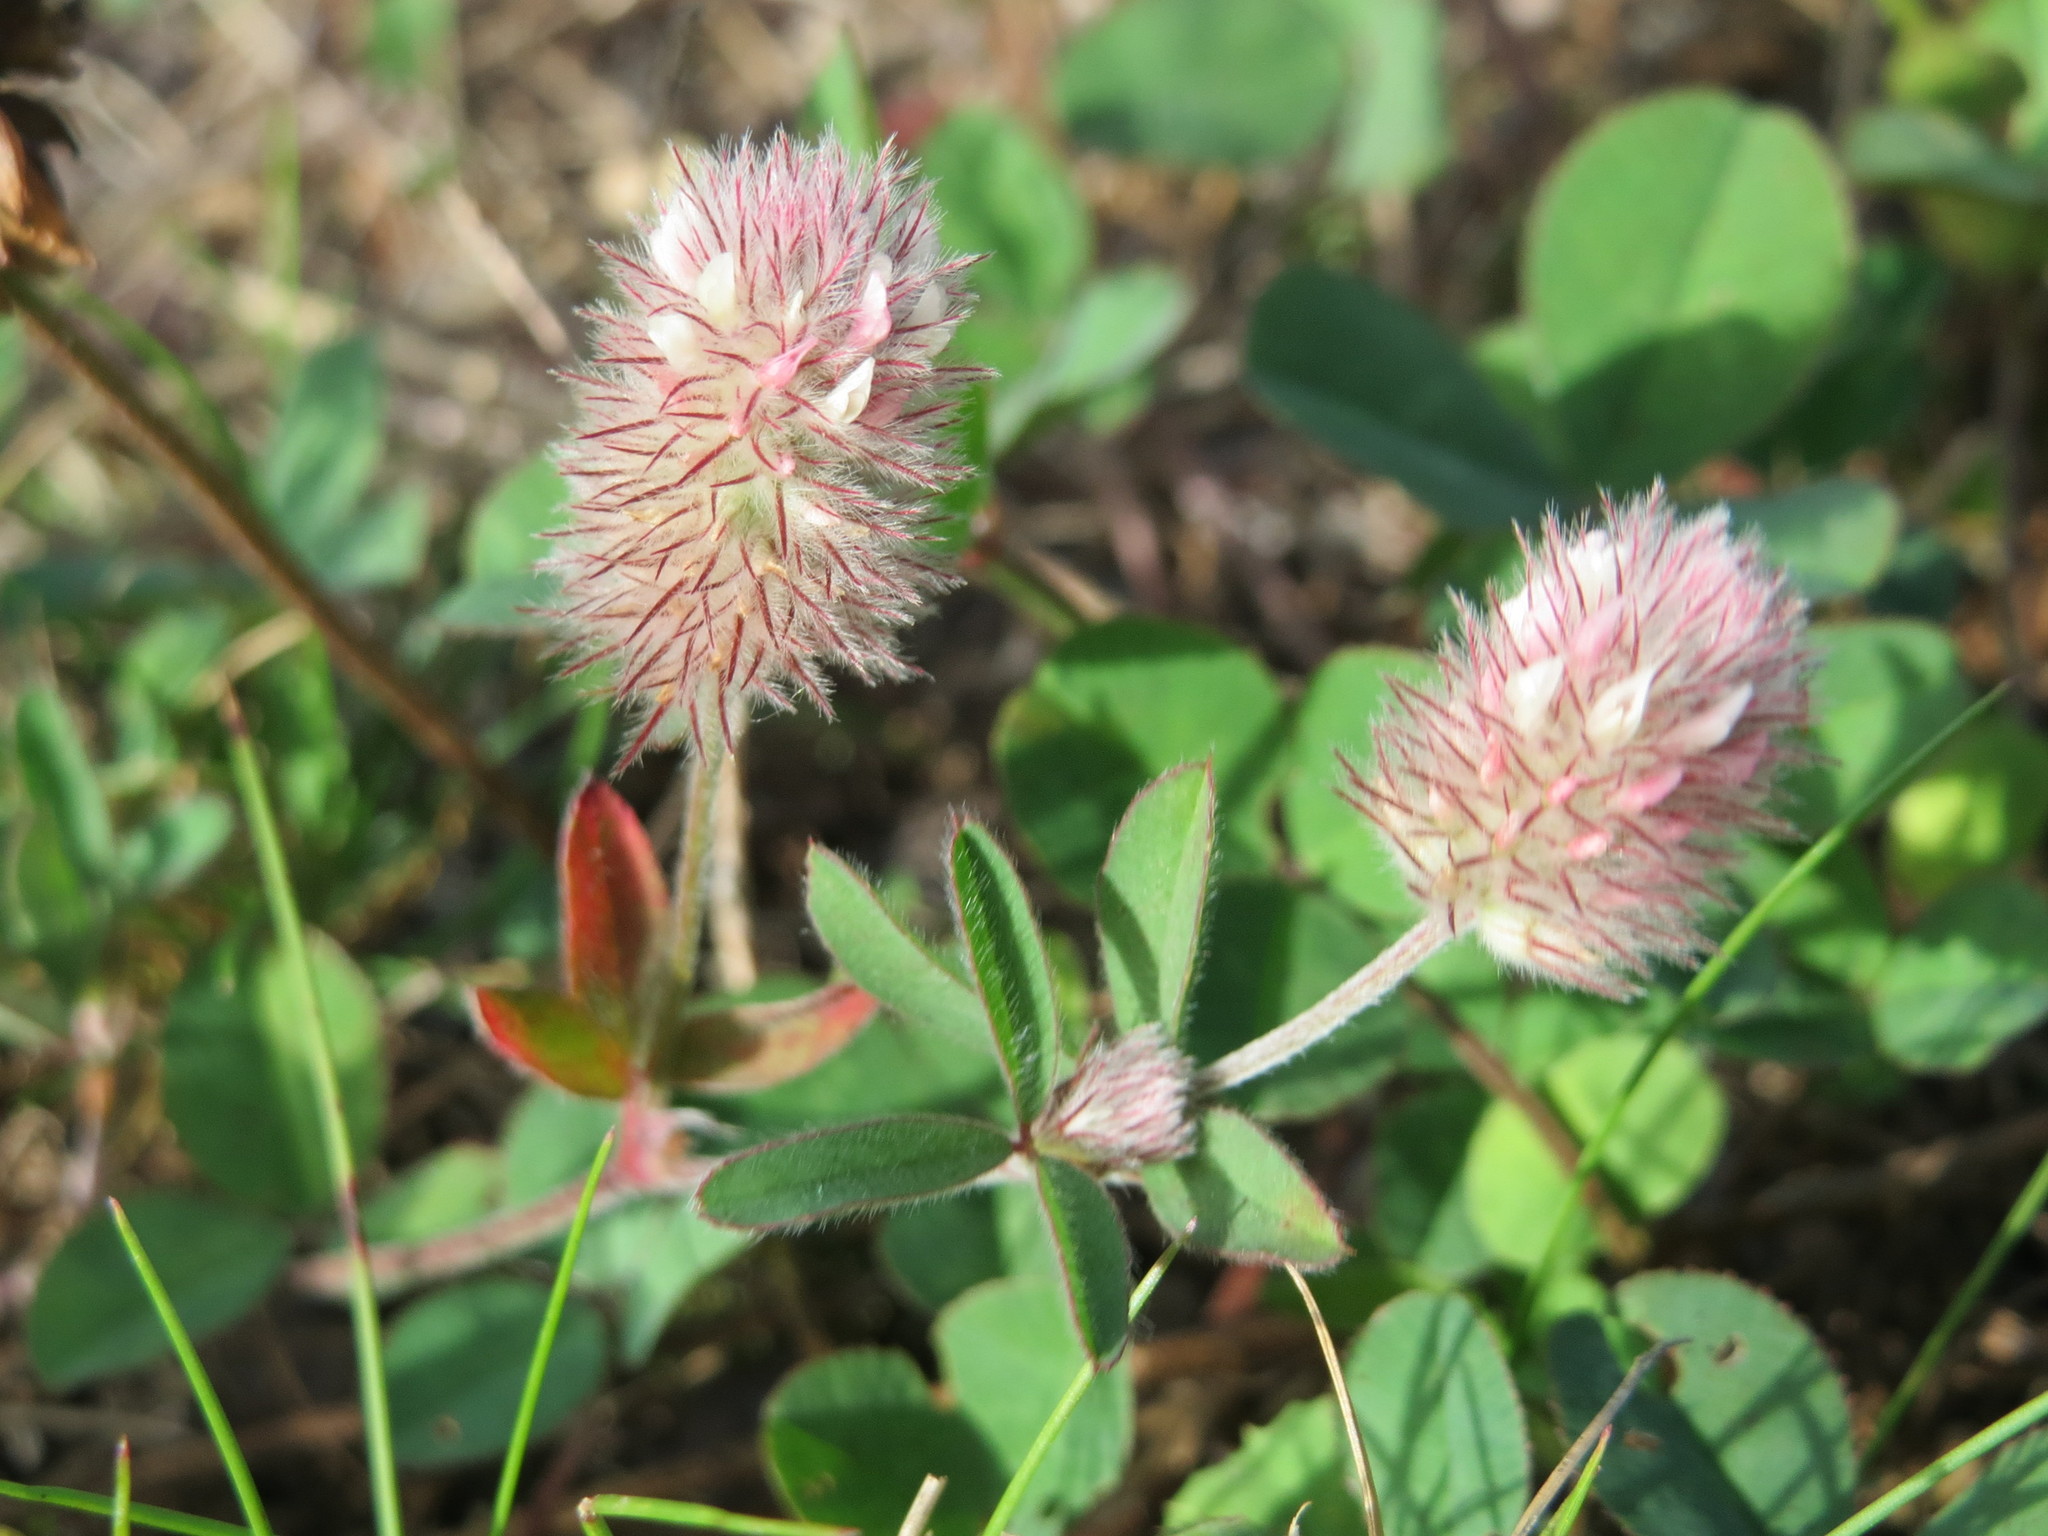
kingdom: Plantae
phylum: Tracheophyta
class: Magnoliopsida
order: Fabales
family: Fabaceae
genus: Trifolium
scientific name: Trifolium arvense
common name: Hare's-foot clover
